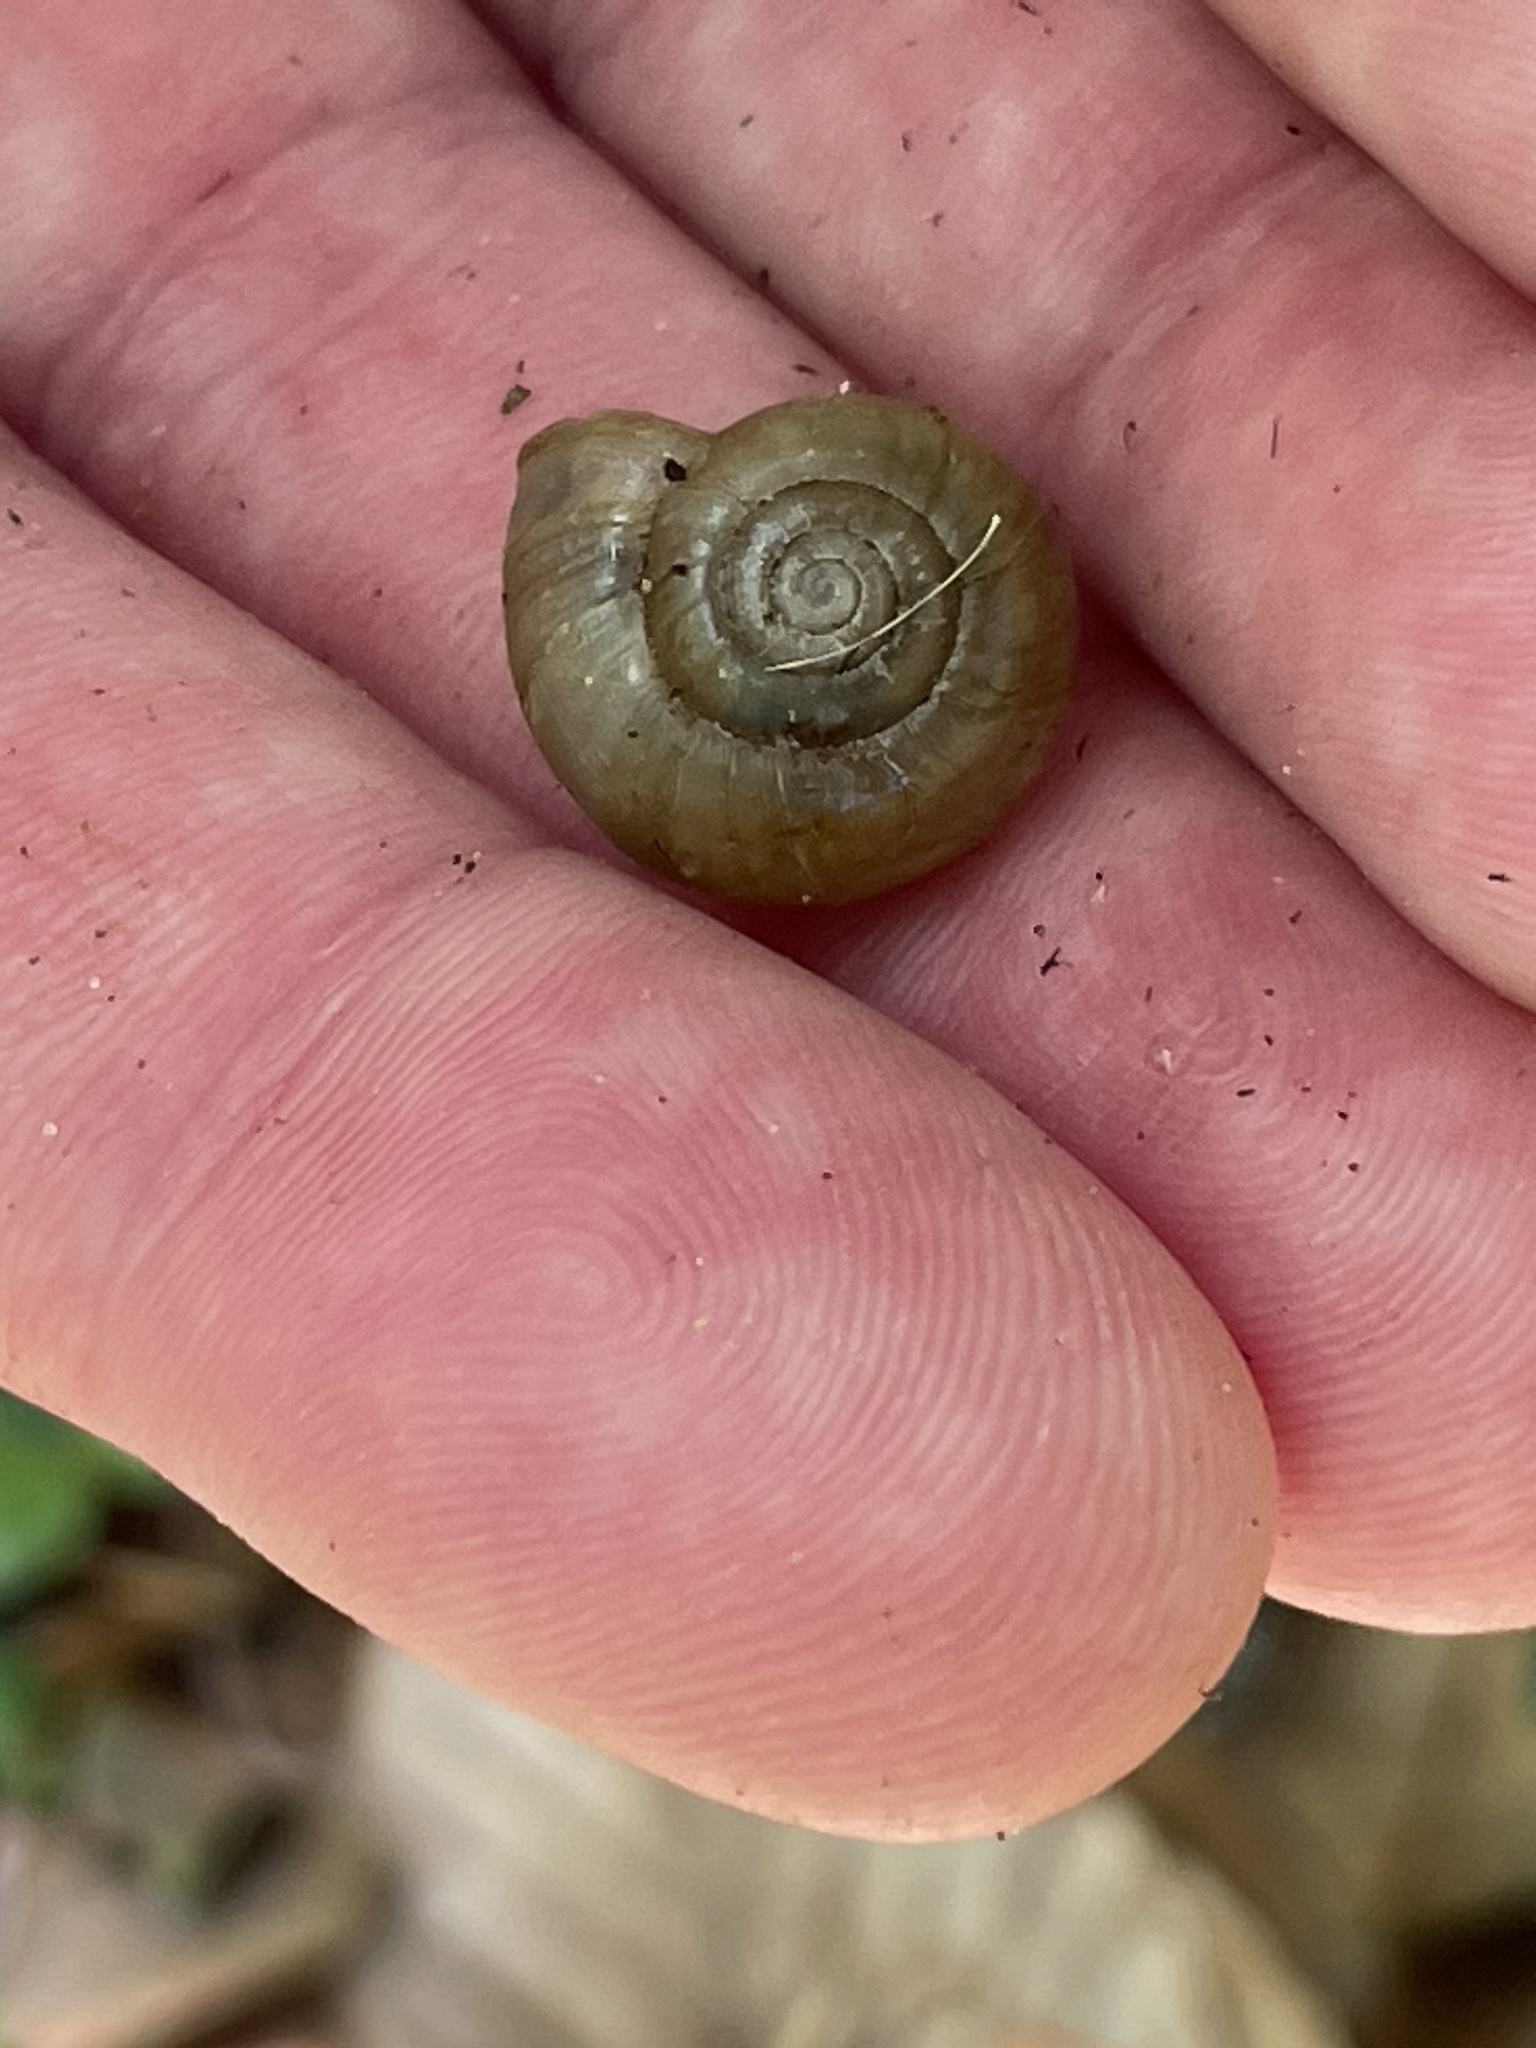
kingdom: Animalia
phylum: Mollusca
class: Gastropoda
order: Stylommatophora
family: Haplotrematidae
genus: Haplotrema
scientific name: Haplotrema concavum
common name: Gray-foot lancetooth
